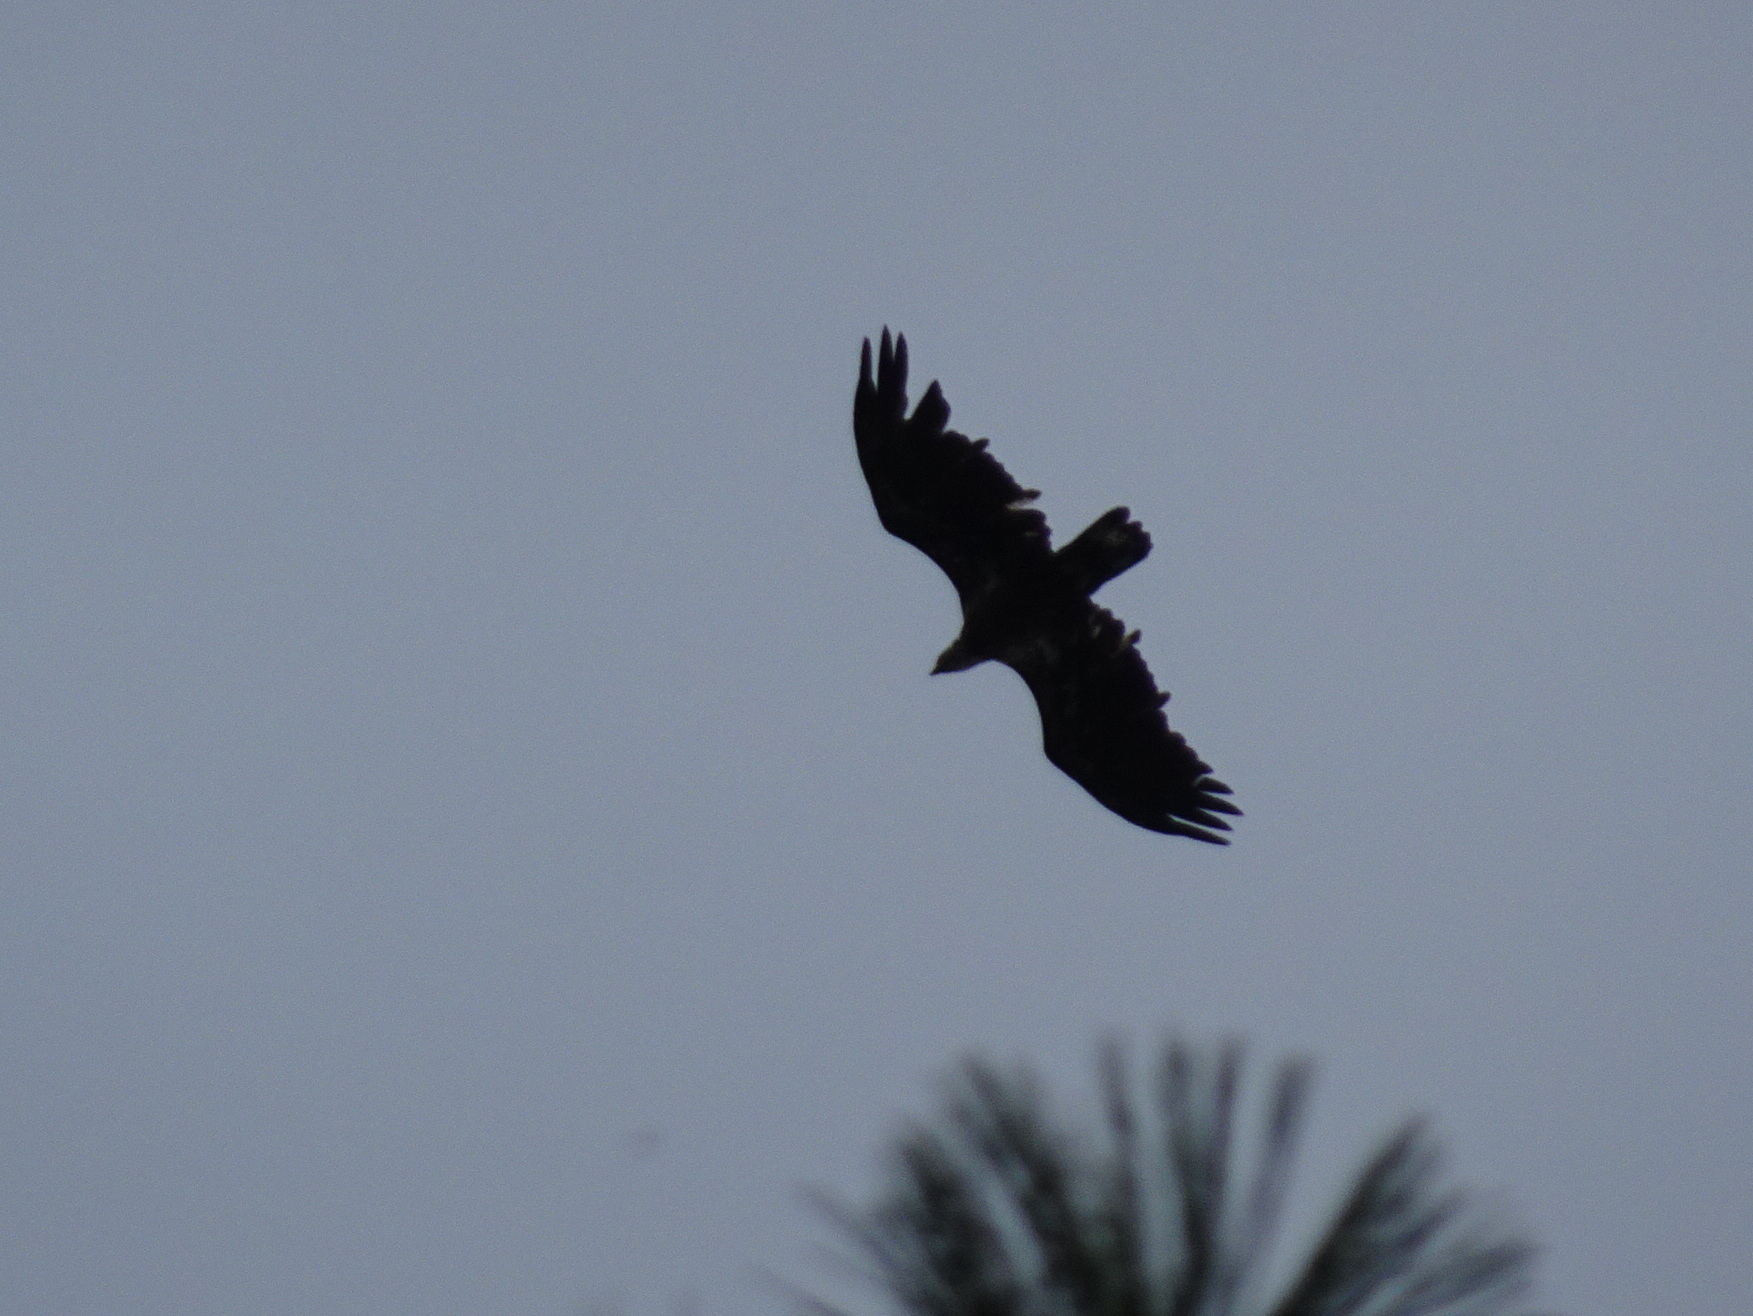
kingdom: Animalia
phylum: Chordata
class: Aves
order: Accipitriformes
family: Accipitridae
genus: Haliaeetus
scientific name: Haliaeetus leucocephalus
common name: Bald eagle
